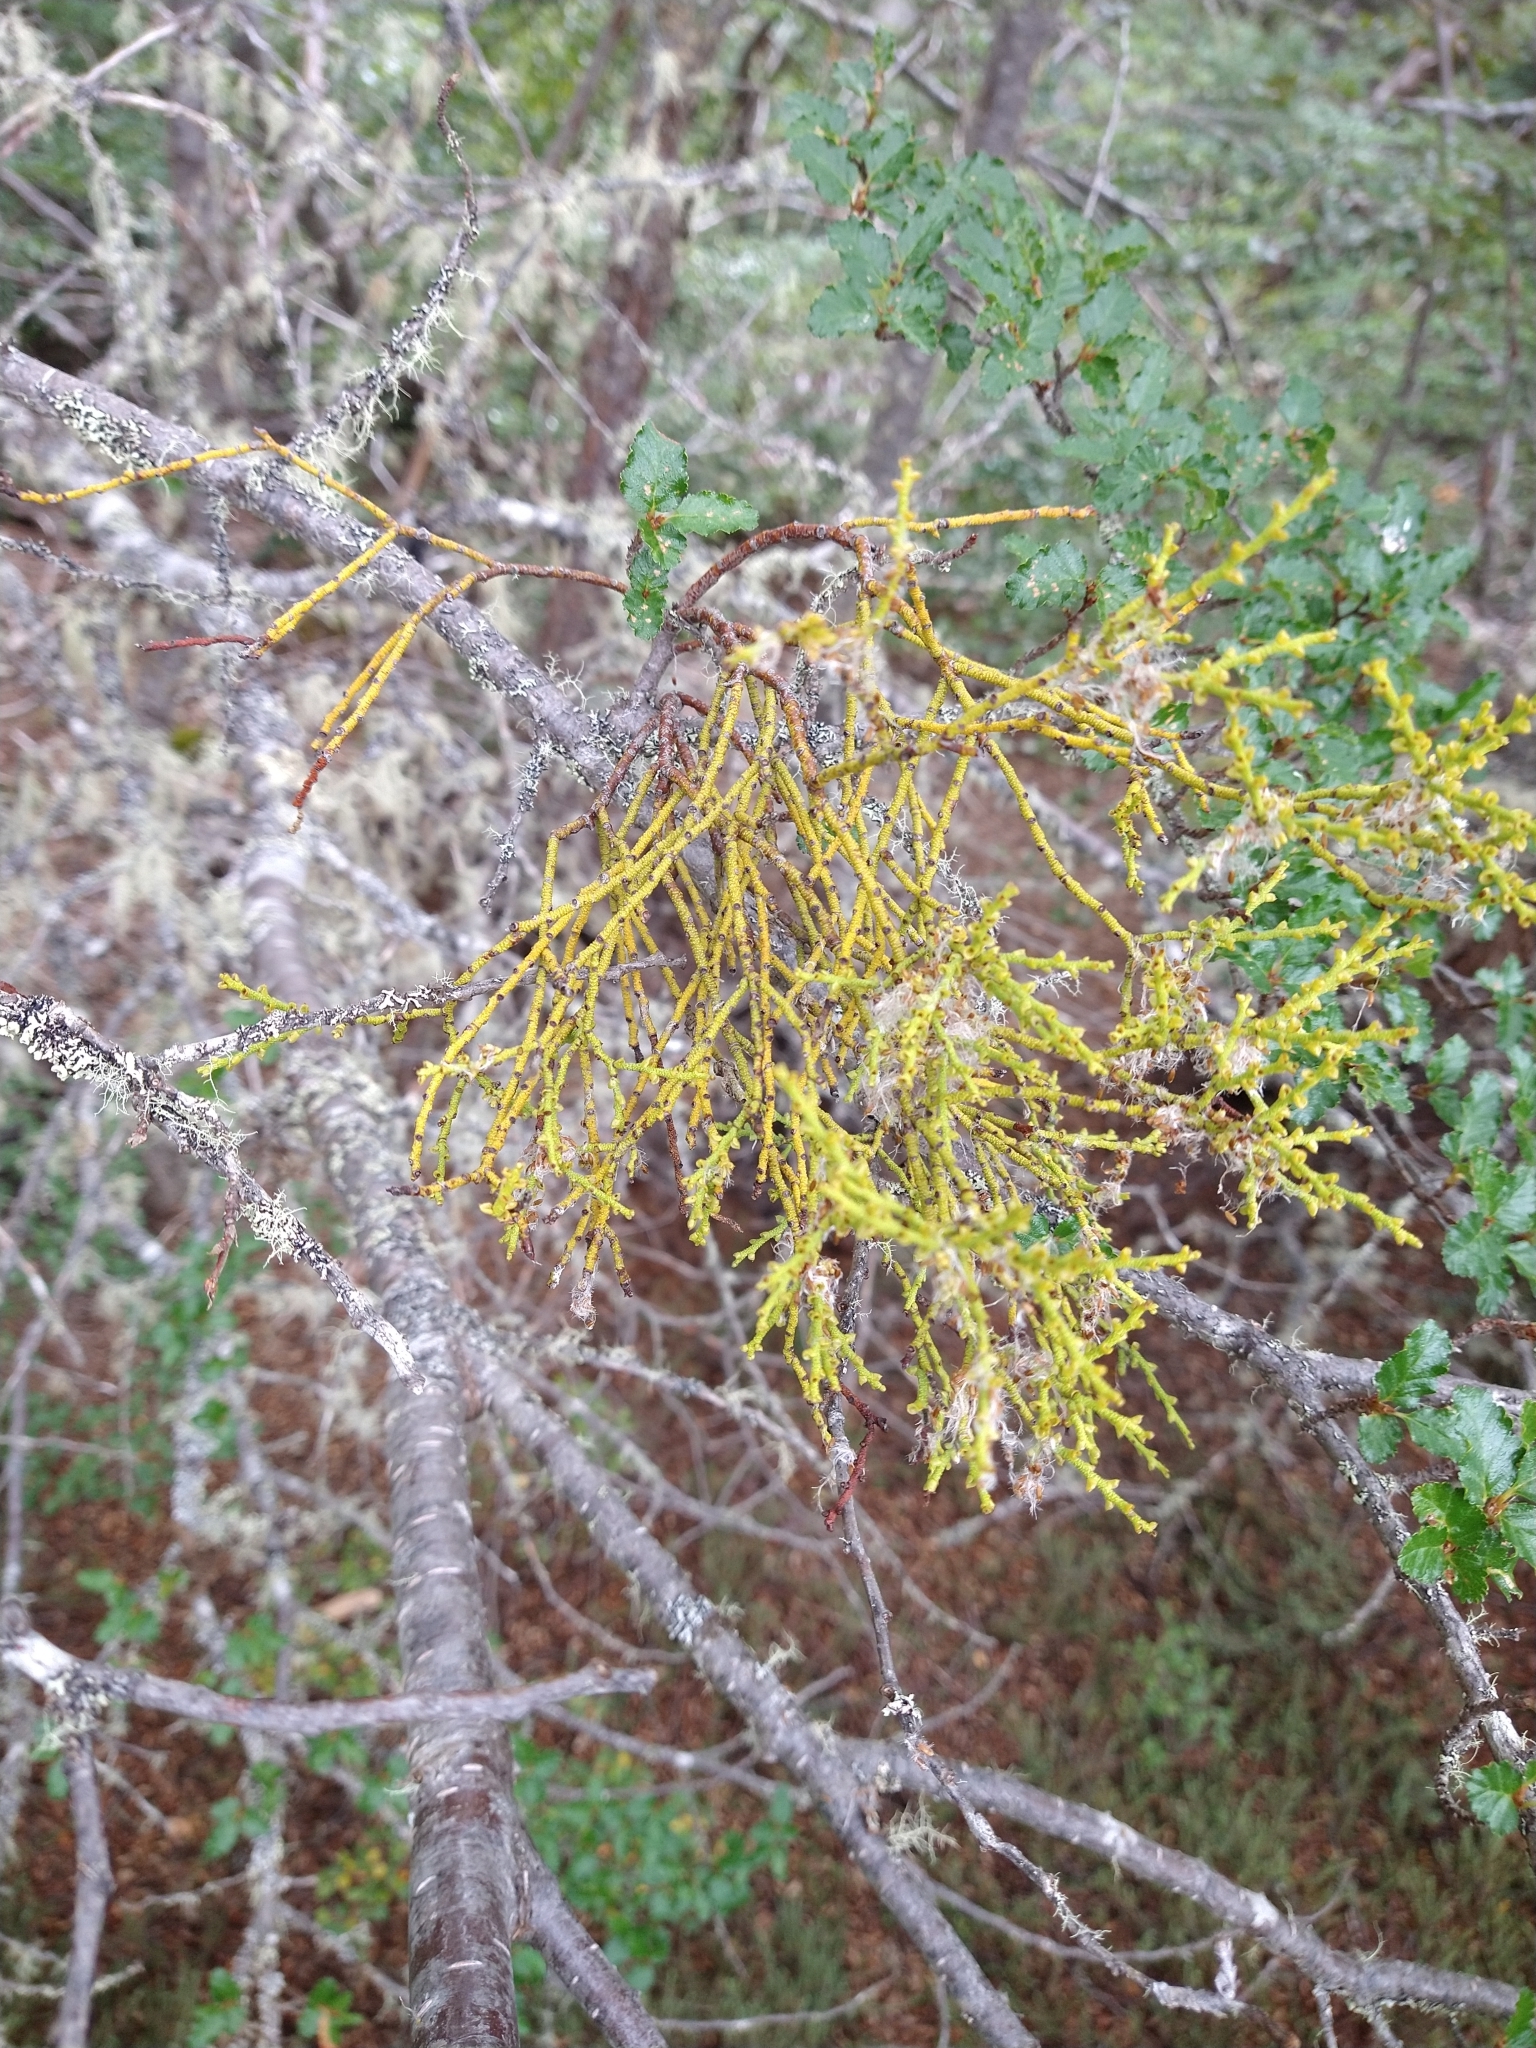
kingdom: Plantae
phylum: Tracheophyta
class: Magnoliopsida
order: Santalales
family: Misodendraceae
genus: Misodendrum
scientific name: Misodendrum punctulatum
